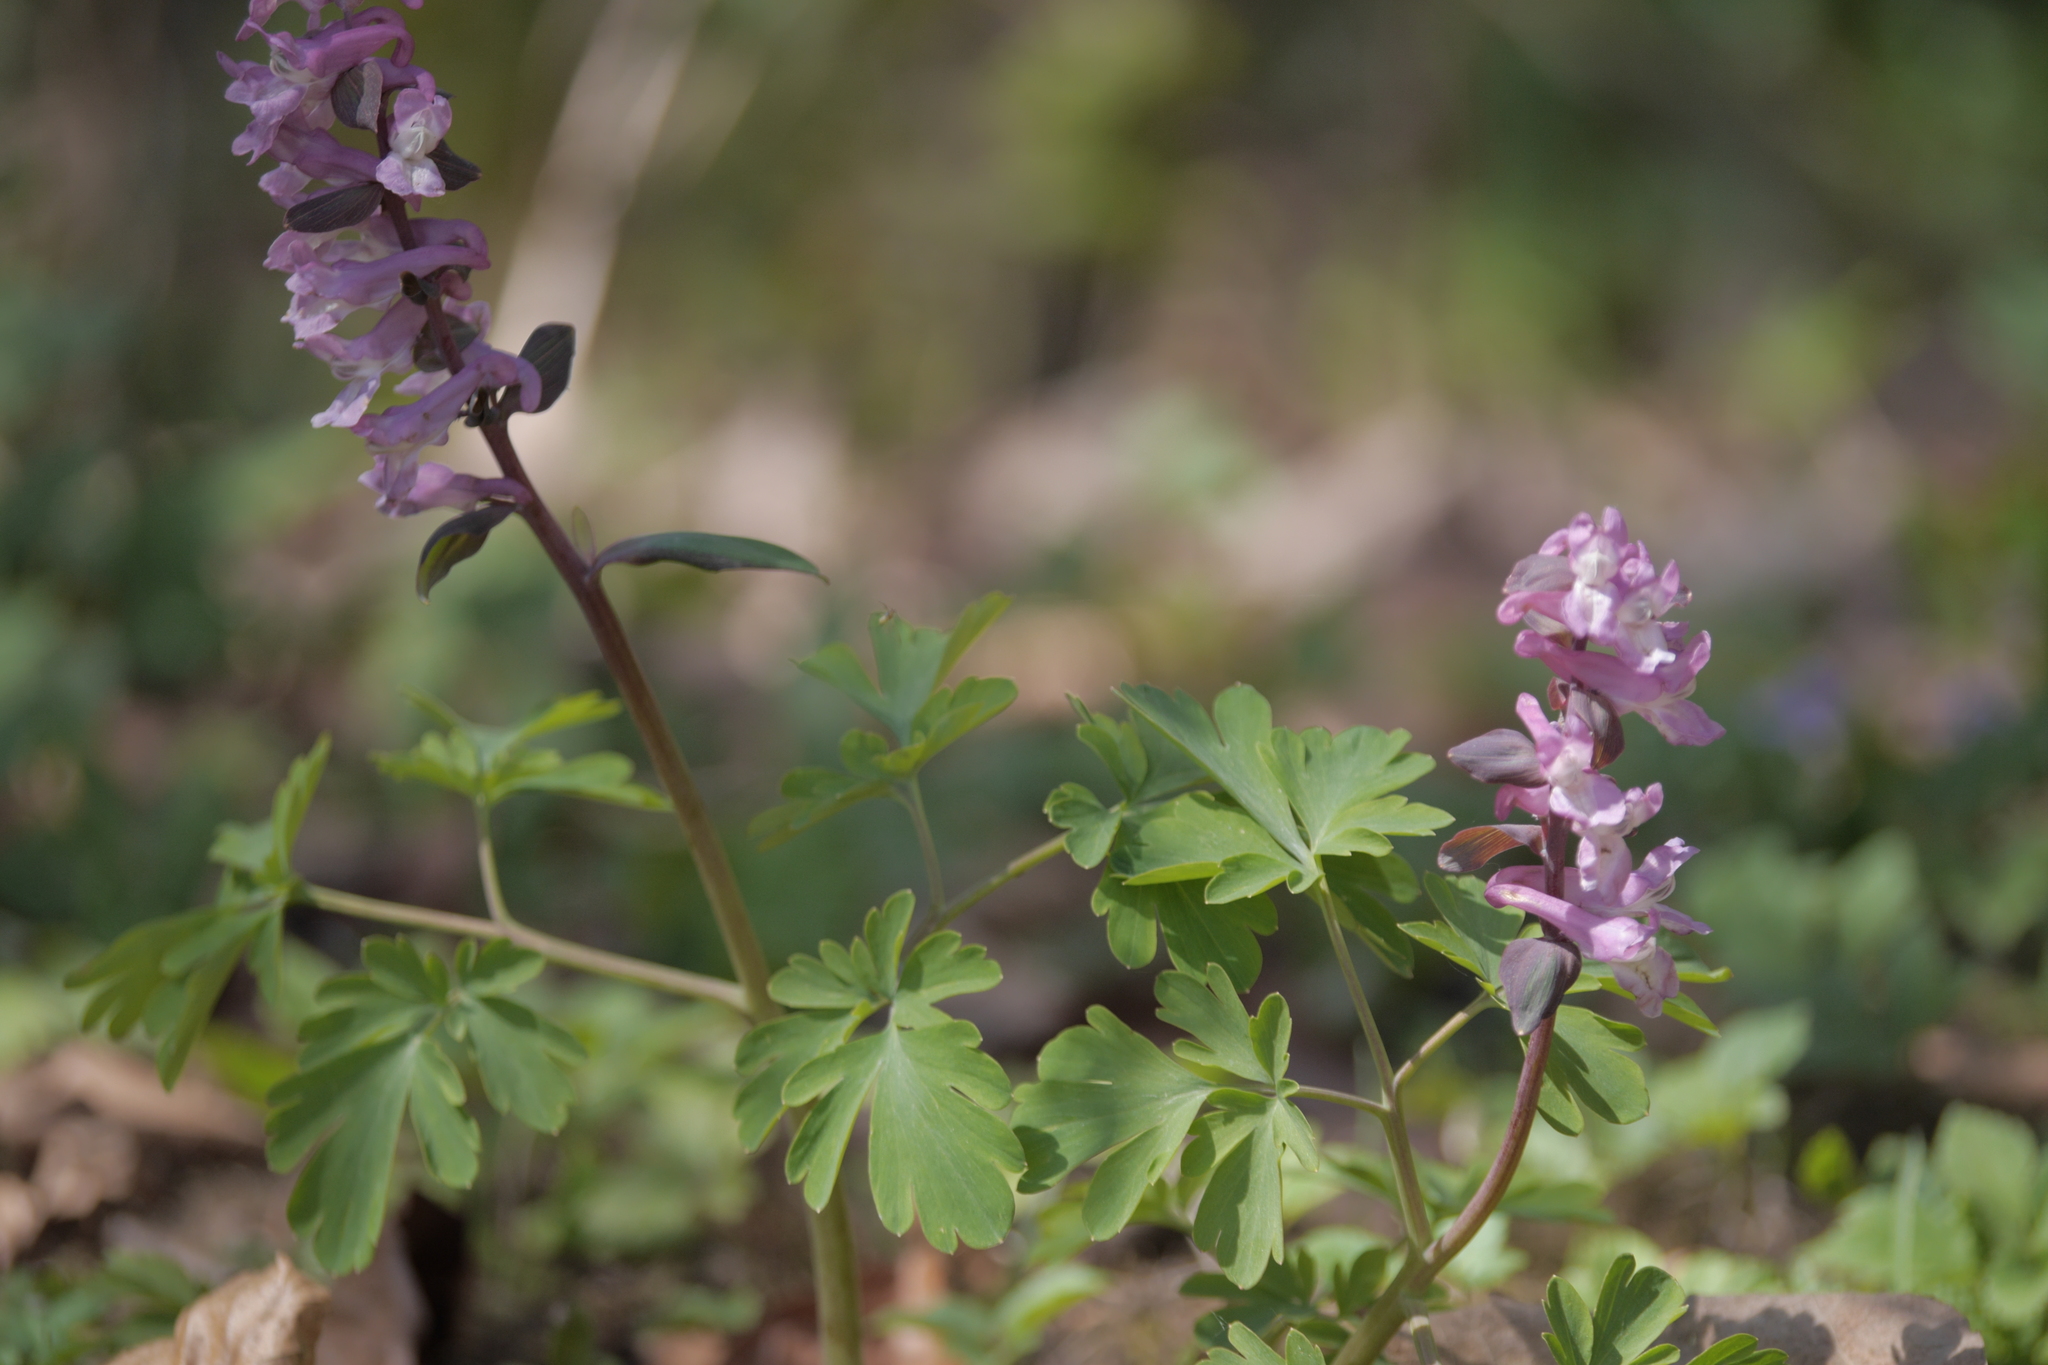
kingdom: Plantae
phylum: Tracheophyta
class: Magnoliopsida
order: Ranunculales
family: Papaveraceae
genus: Corydalis
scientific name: Corydalis cava
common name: Hollowroot
